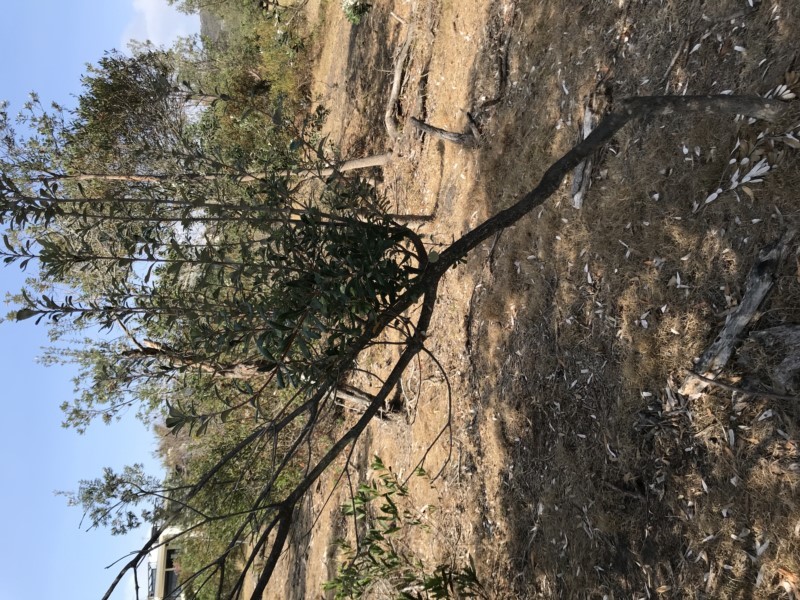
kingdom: Plantae
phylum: Tracheophyta
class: Magnoliopsida
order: Proteales
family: Proteaceae
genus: Banksia
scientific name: Banksia integrifolia
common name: White-honeysuckle
